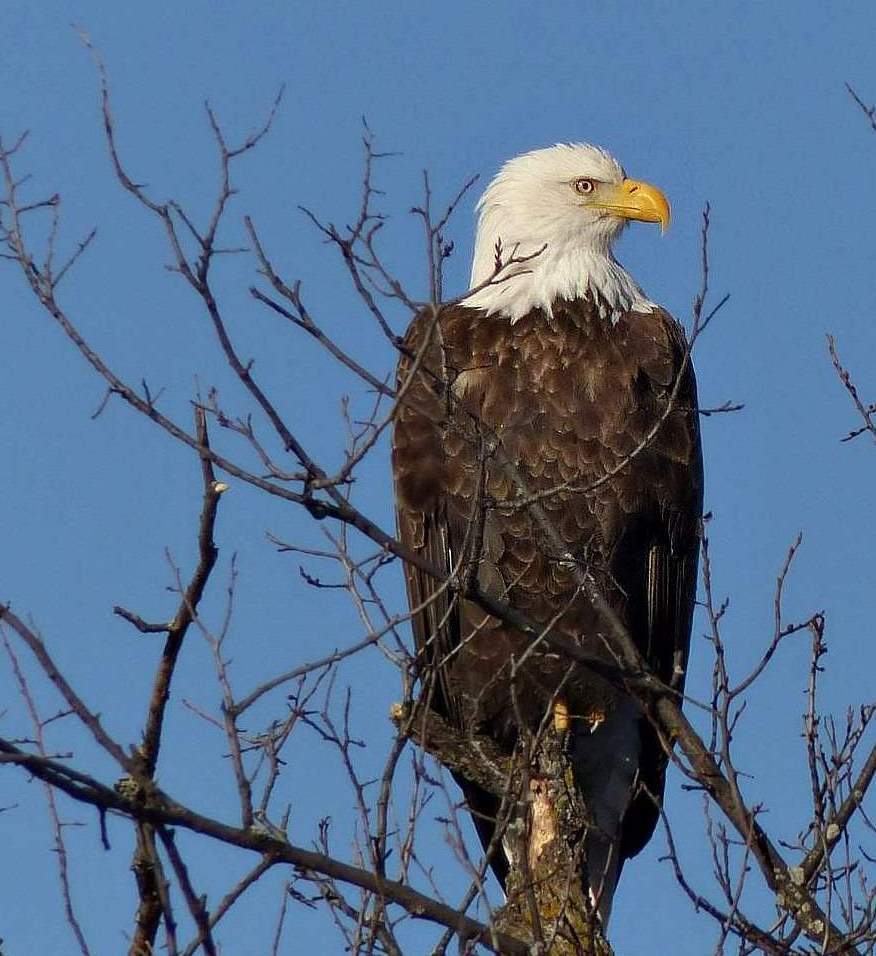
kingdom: Animalia
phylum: Chordata
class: Aves
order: Accipitriformes
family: Accipitridae
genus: Haliaeetus
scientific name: Haliaeetus leucocephalus
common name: Bald eagle
